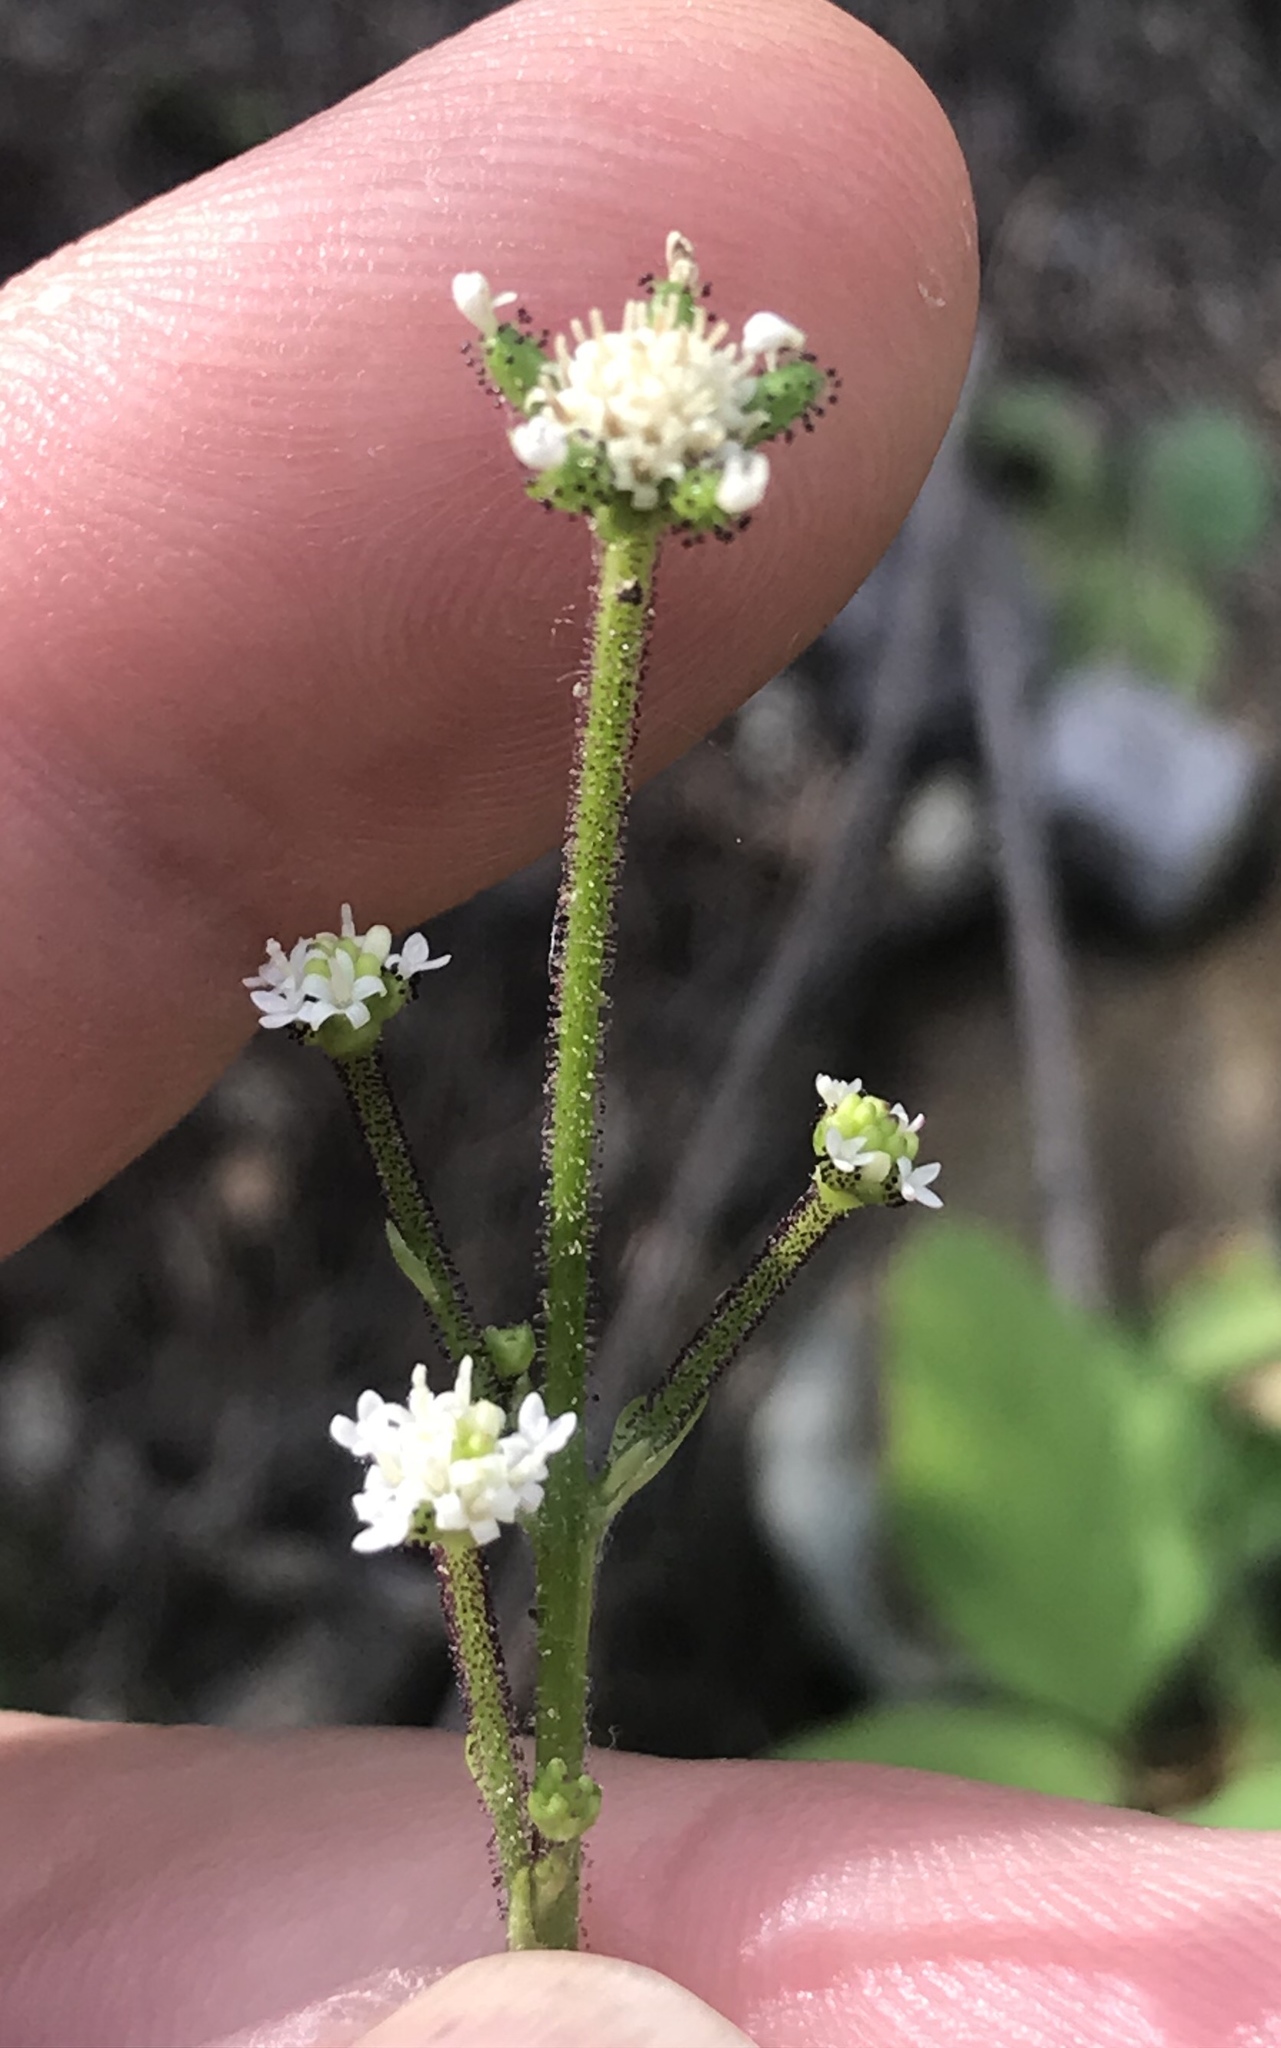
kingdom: Plantae
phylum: Tracheophyta
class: Magnoliopsida
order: Asterales
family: Asteraceae
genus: Adenocaulon
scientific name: Adenocaulon bicolor
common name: Trailplant
